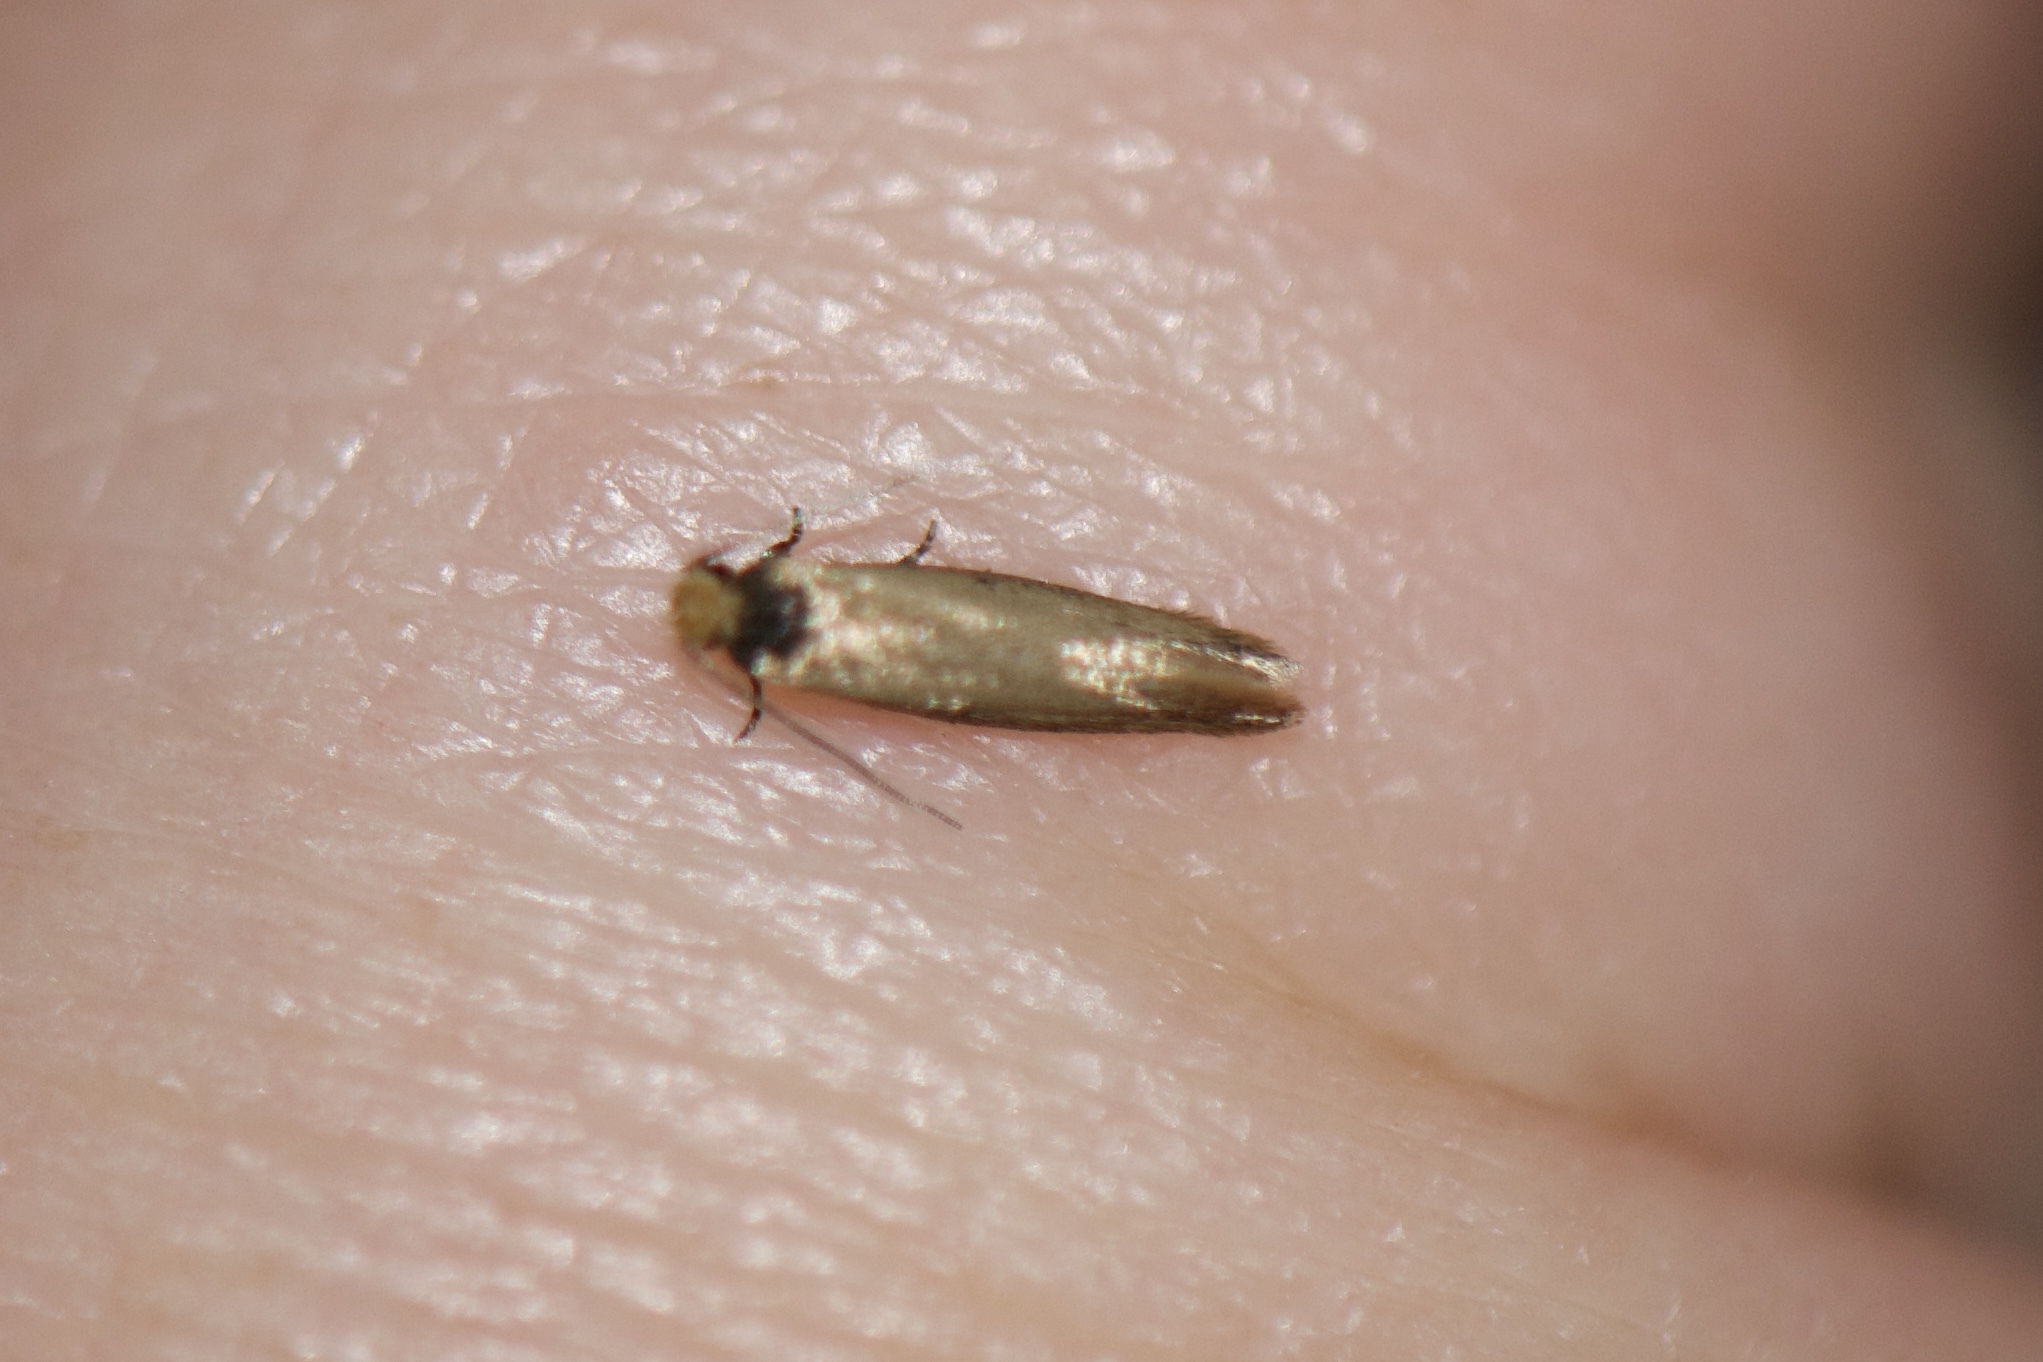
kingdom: Animalia
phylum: Arthropoda
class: Insecta
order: Lepidoptera
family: Meessiidae
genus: Homostinea
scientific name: Homostinea curviliniella
